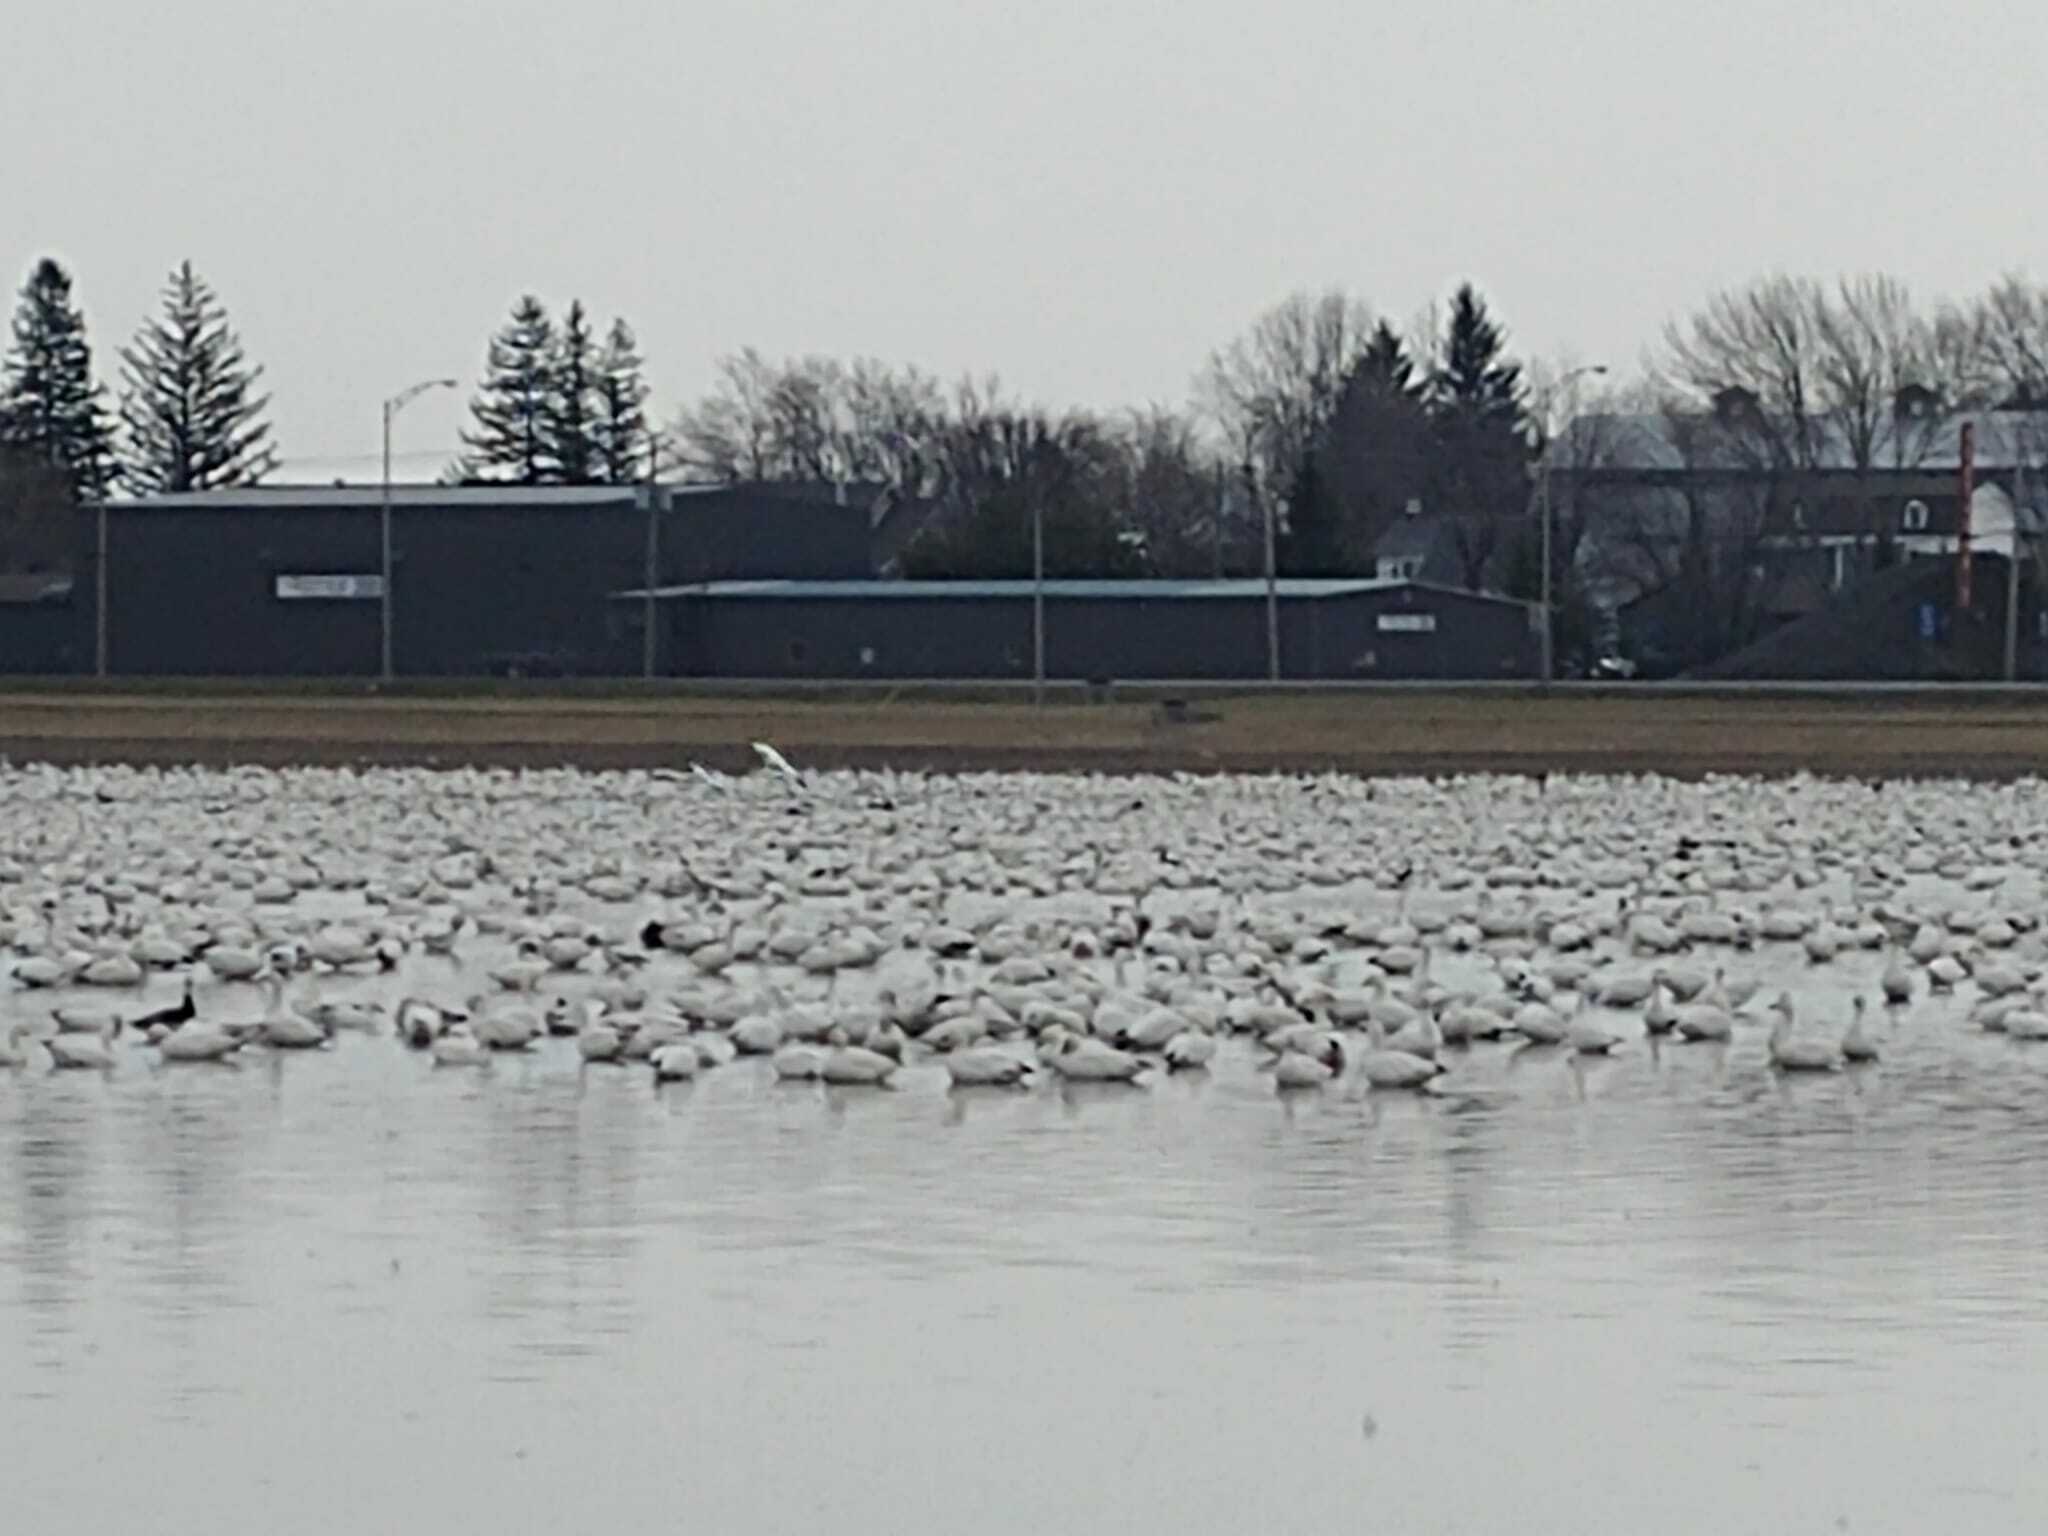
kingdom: Animalia
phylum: Chordata
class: Aves
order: Anseriformes
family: Anatidae
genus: Anser
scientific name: Anser caerulescens
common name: Snow goose
